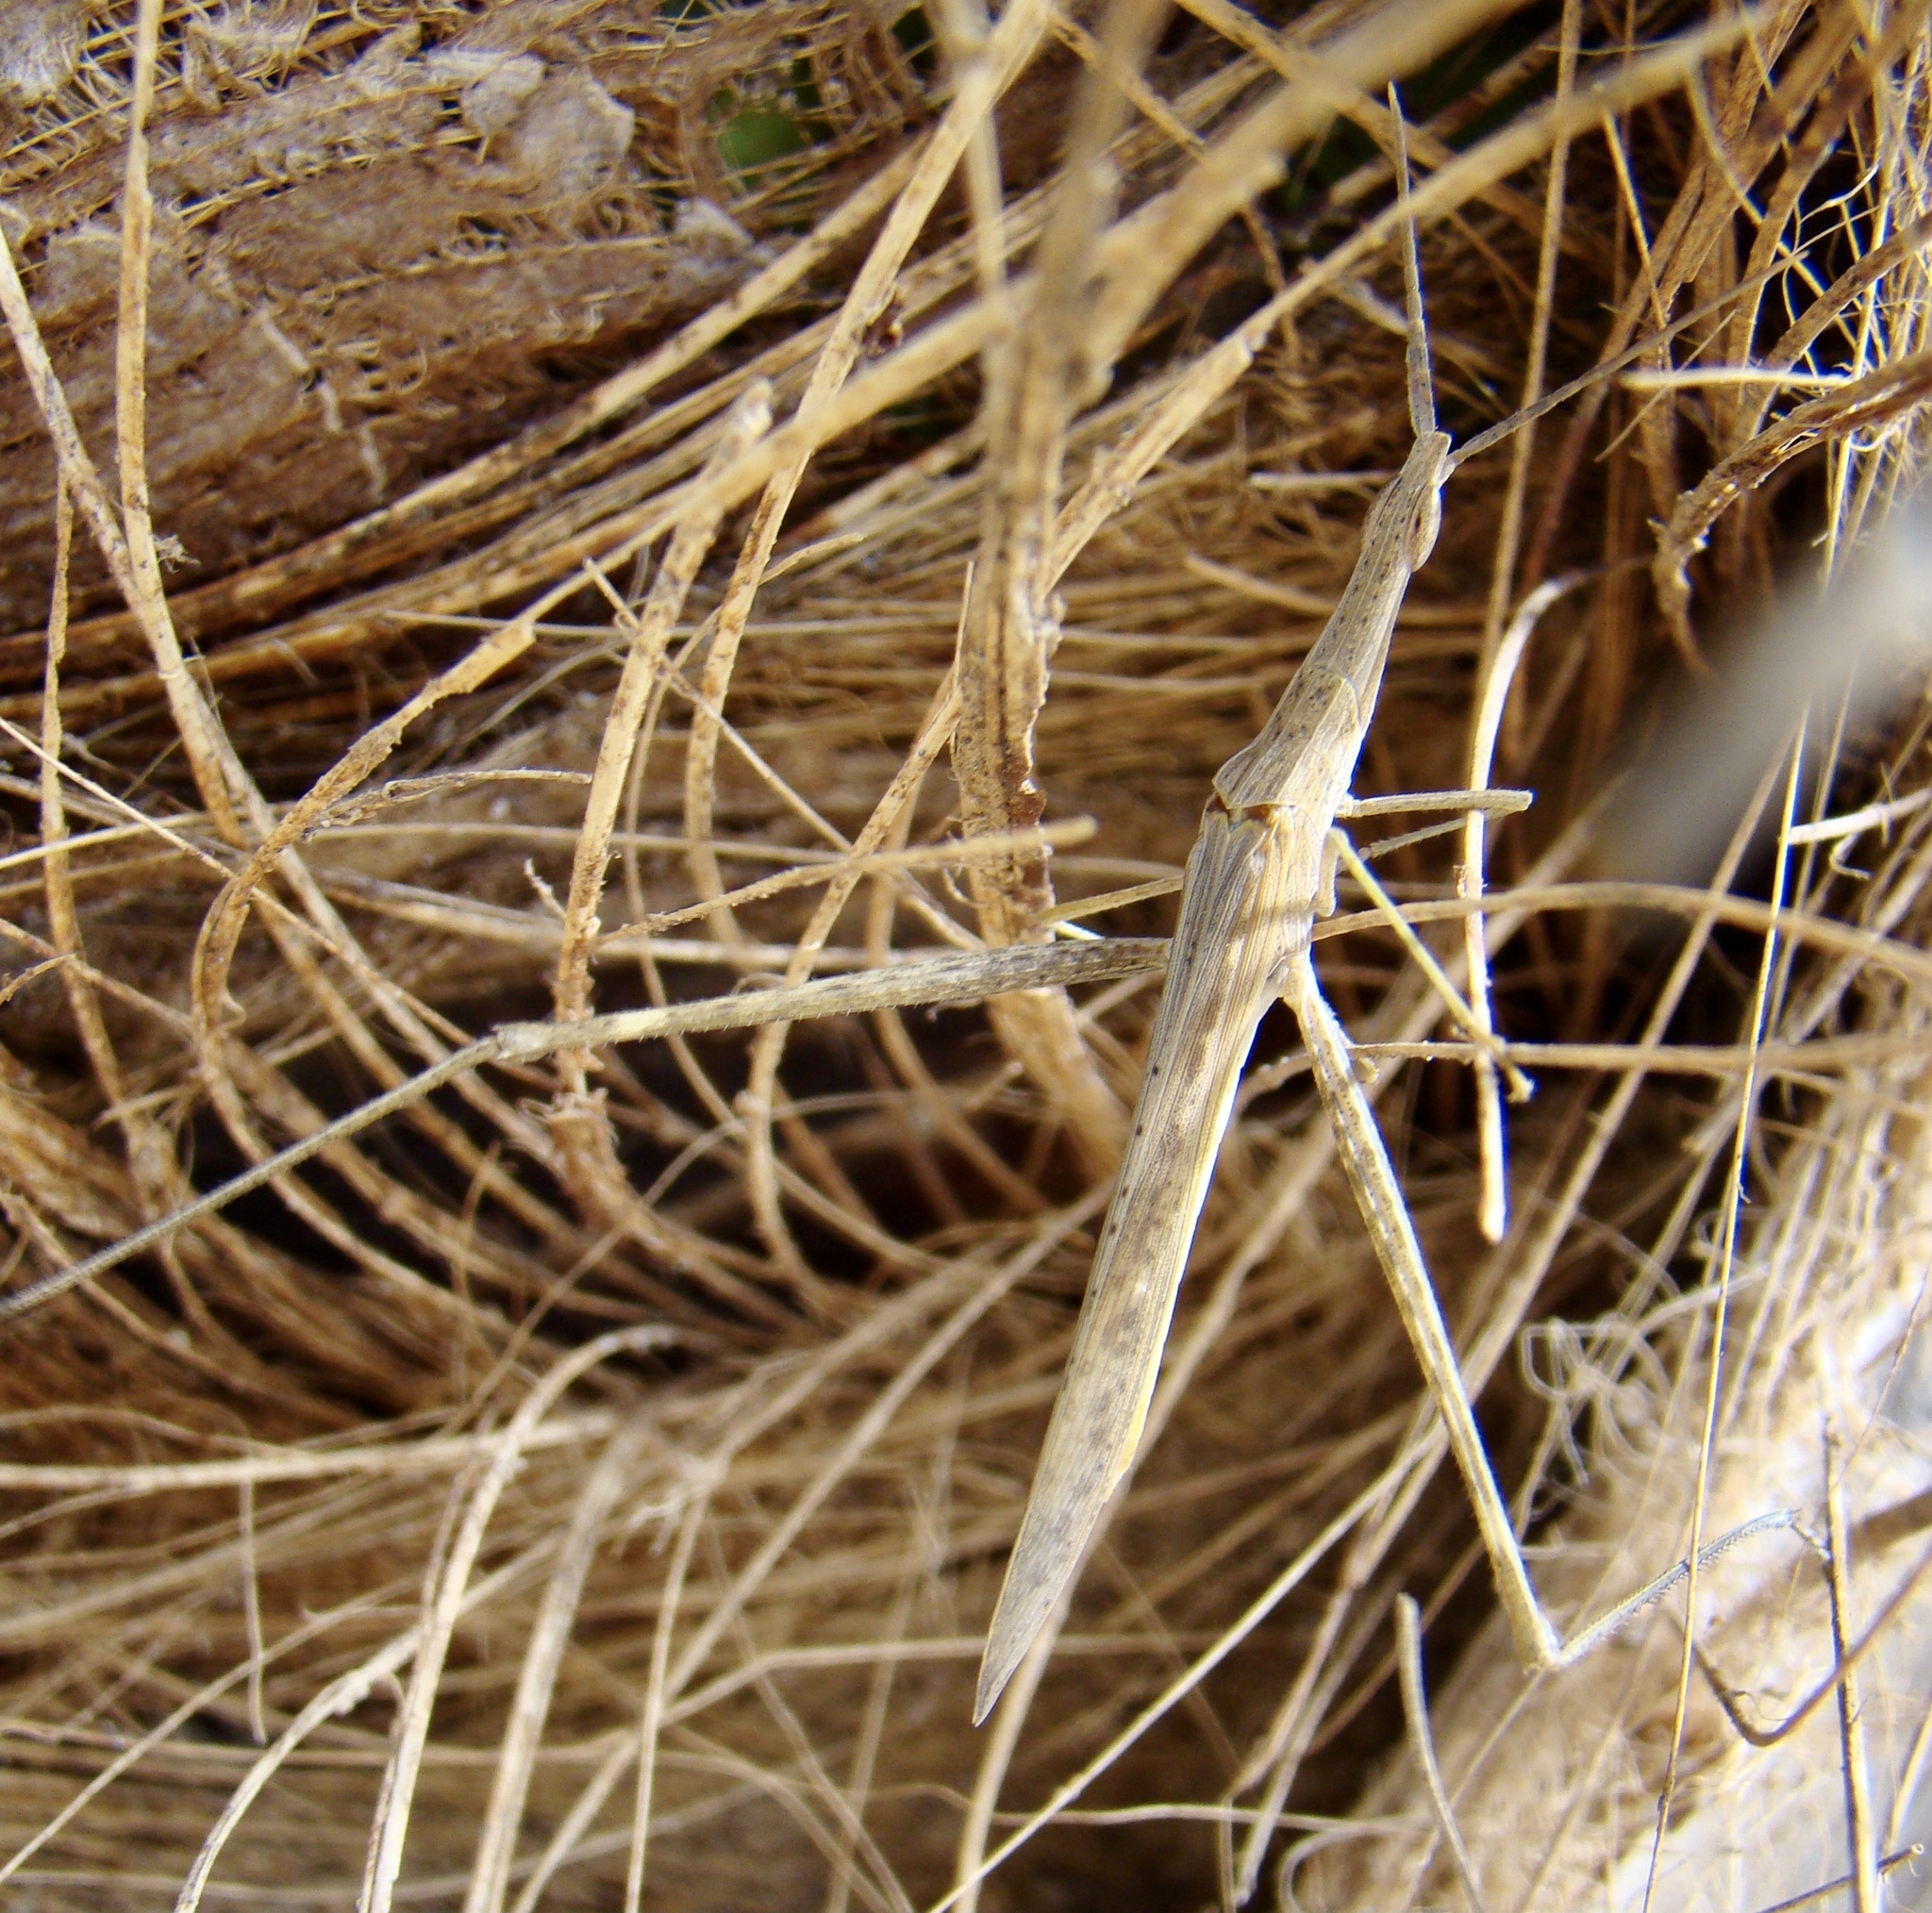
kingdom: Animalia
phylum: Arthropoda
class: Insecta
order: Orthoptera
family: Acrididae
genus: Acrida
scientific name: Acrida bicolor
